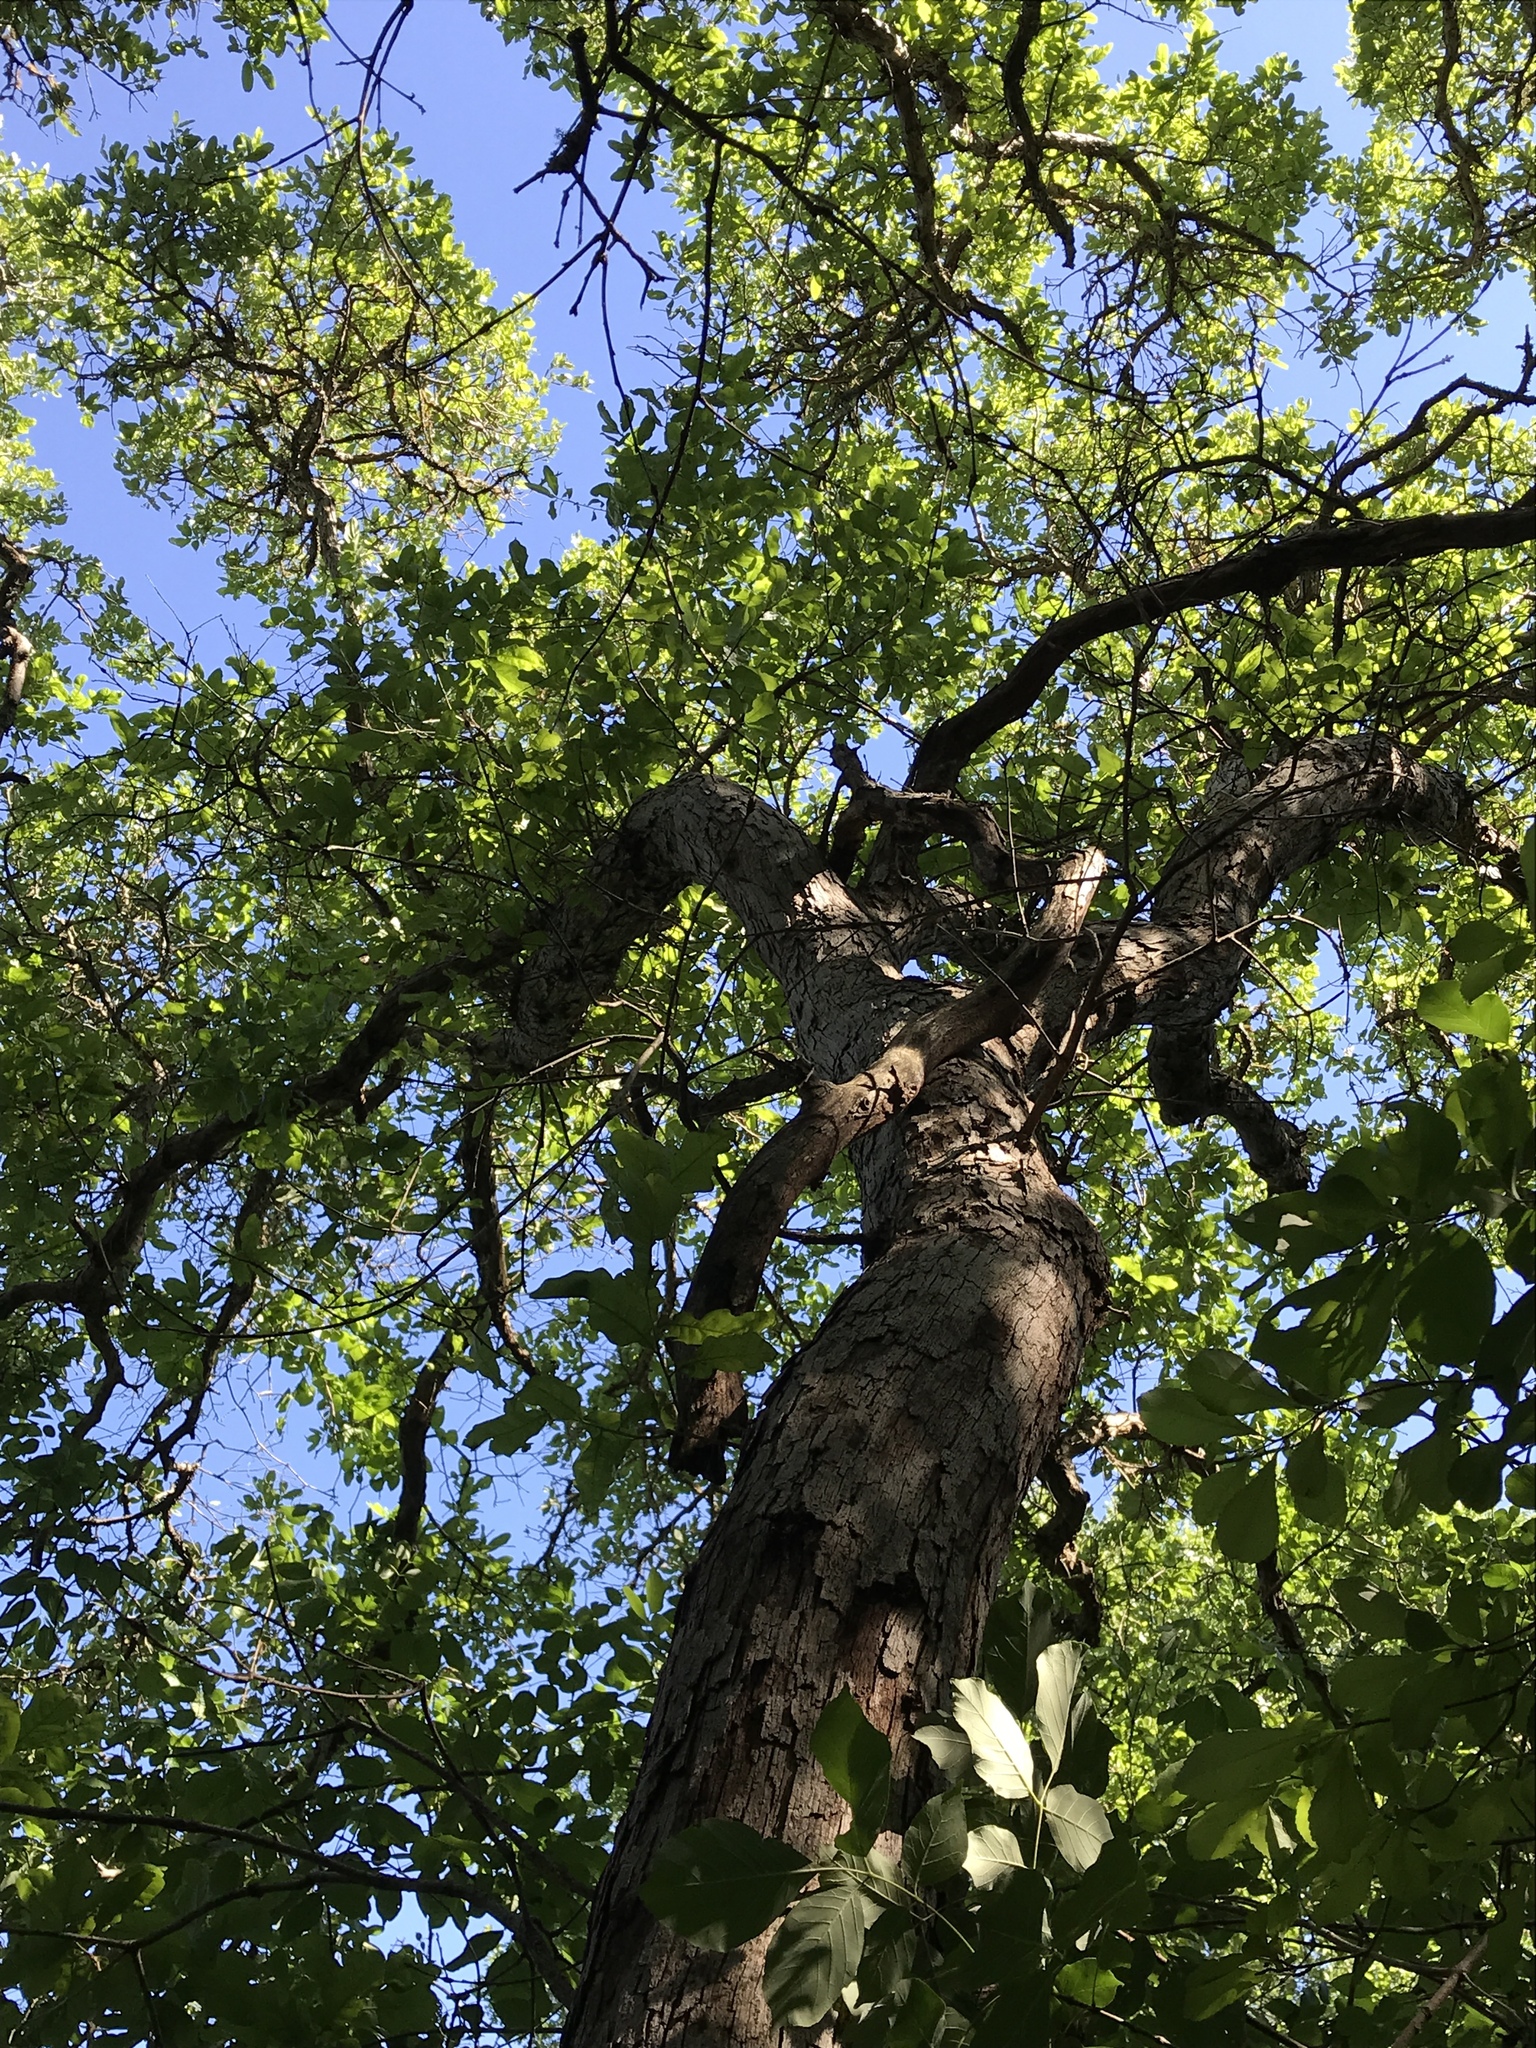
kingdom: Plantae
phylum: Tracheophyta
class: Magnoliopsida
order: Fagales
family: Fagaceae
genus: Quercus
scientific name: Quercus sinuata
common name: Durand oak
